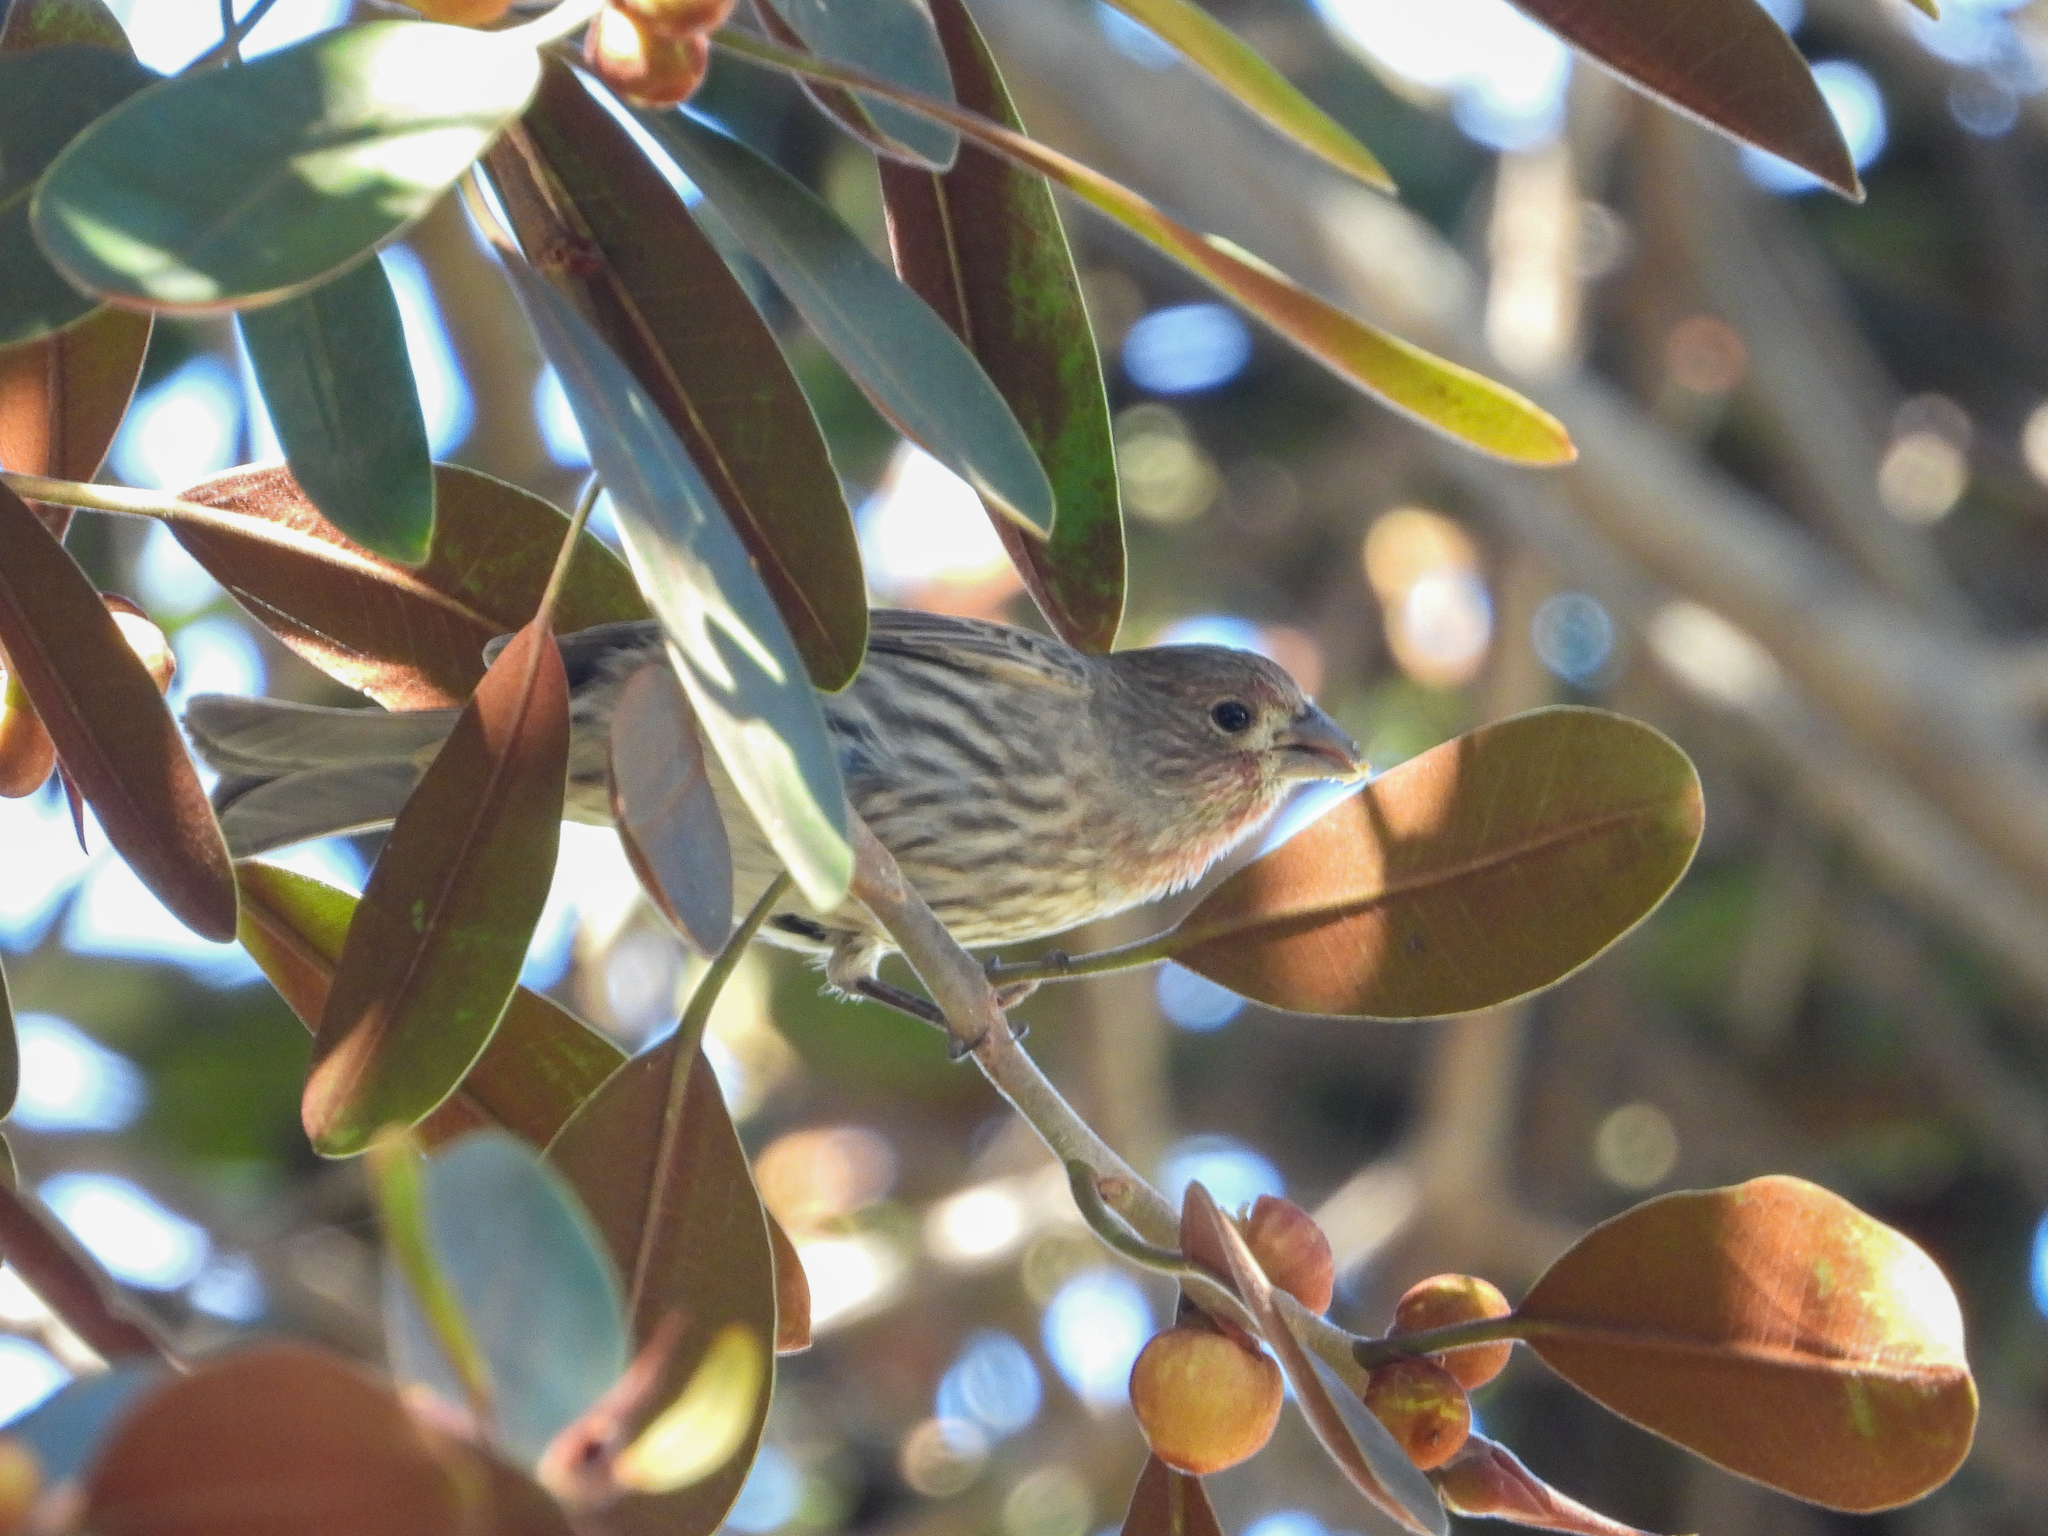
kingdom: Animalia
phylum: Chordata
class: Aves
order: Passeriformes
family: Fringillidae
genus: Haemorhous
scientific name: Haemorhous mexicanus
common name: House finch
